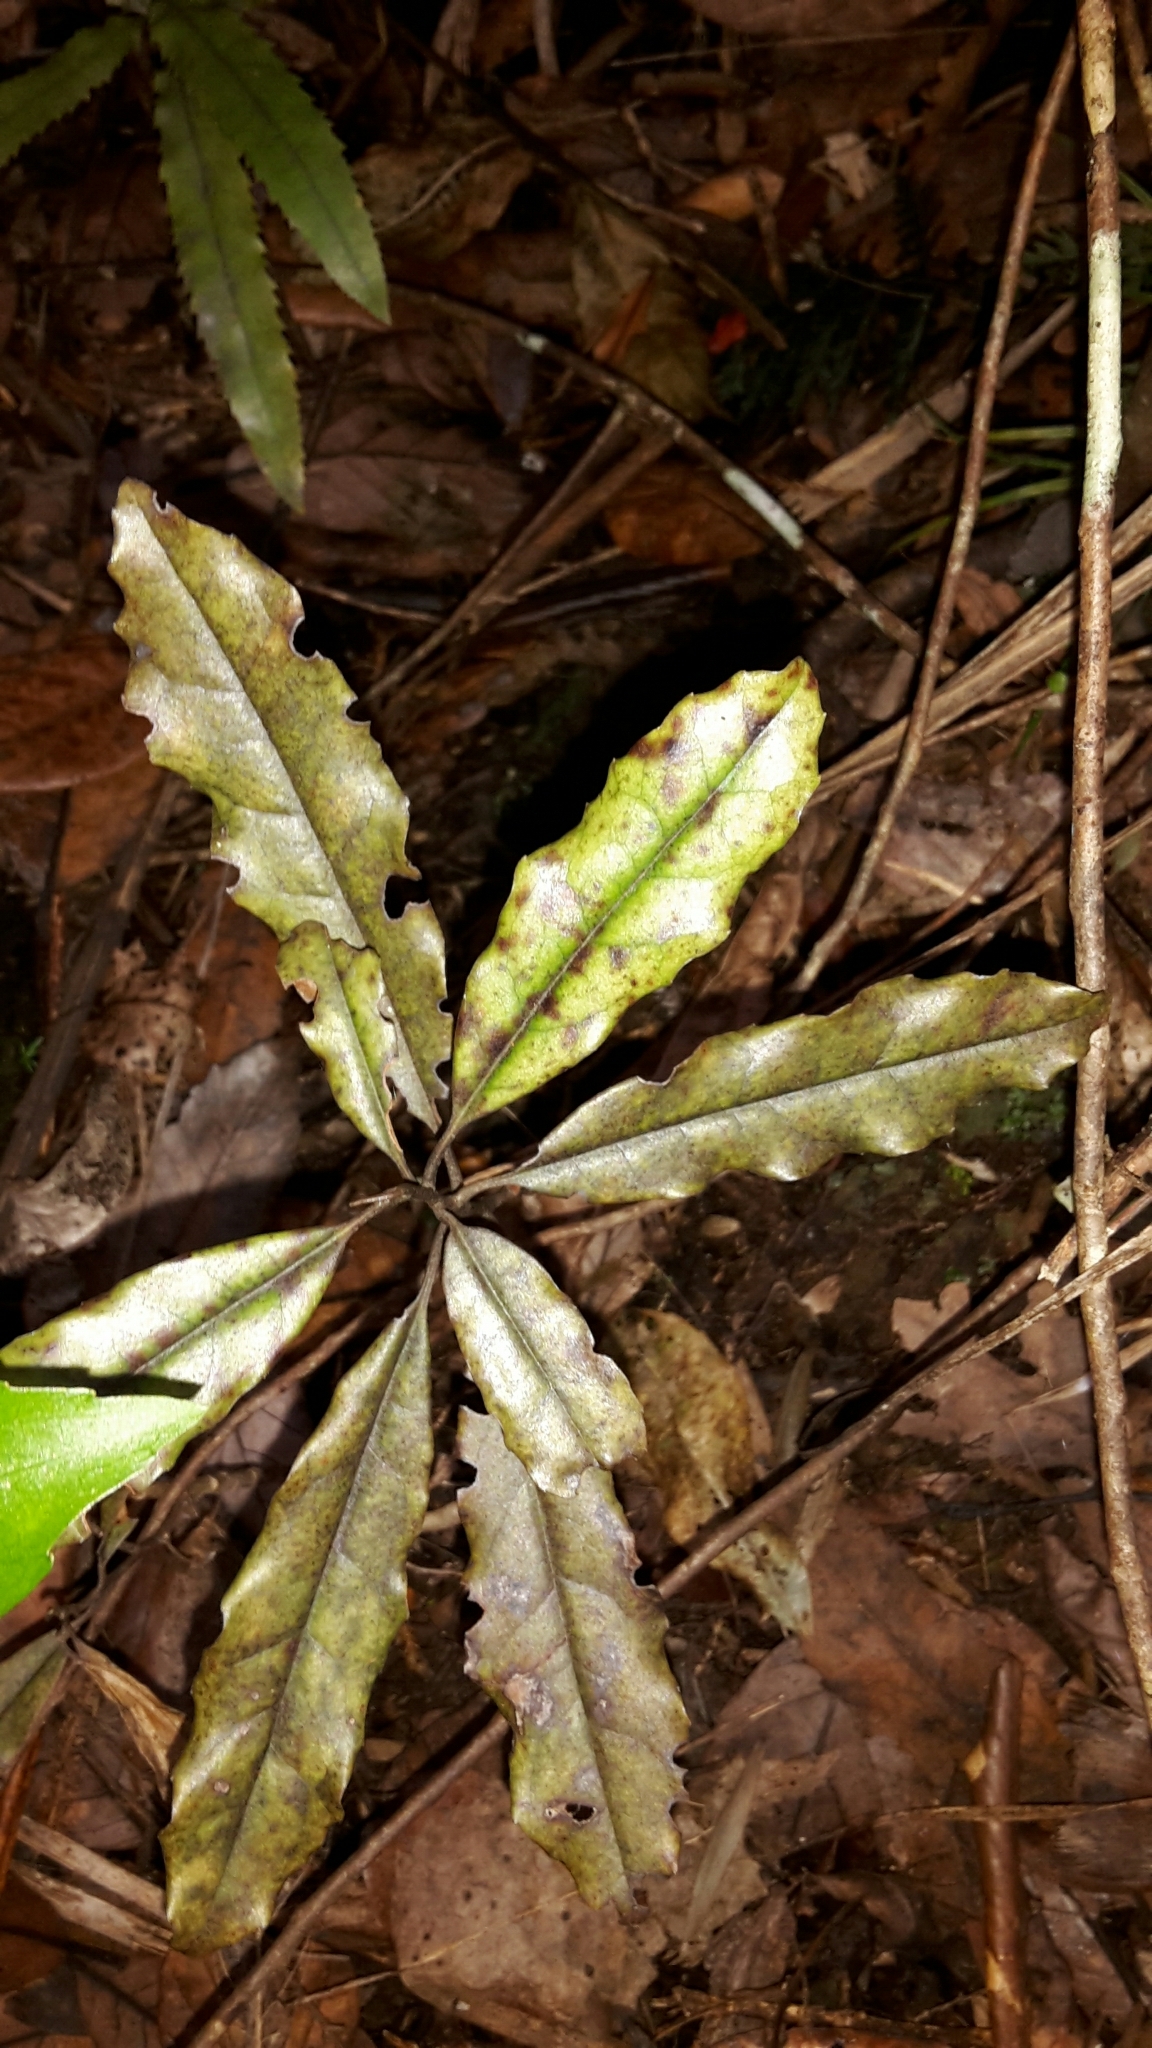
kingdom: Plantae
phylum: Tracheophyta
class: Magnoliopsida
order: Paracryphiales
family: Paracryphiaceae
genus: Quintinia
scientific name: Quintinia serrata
